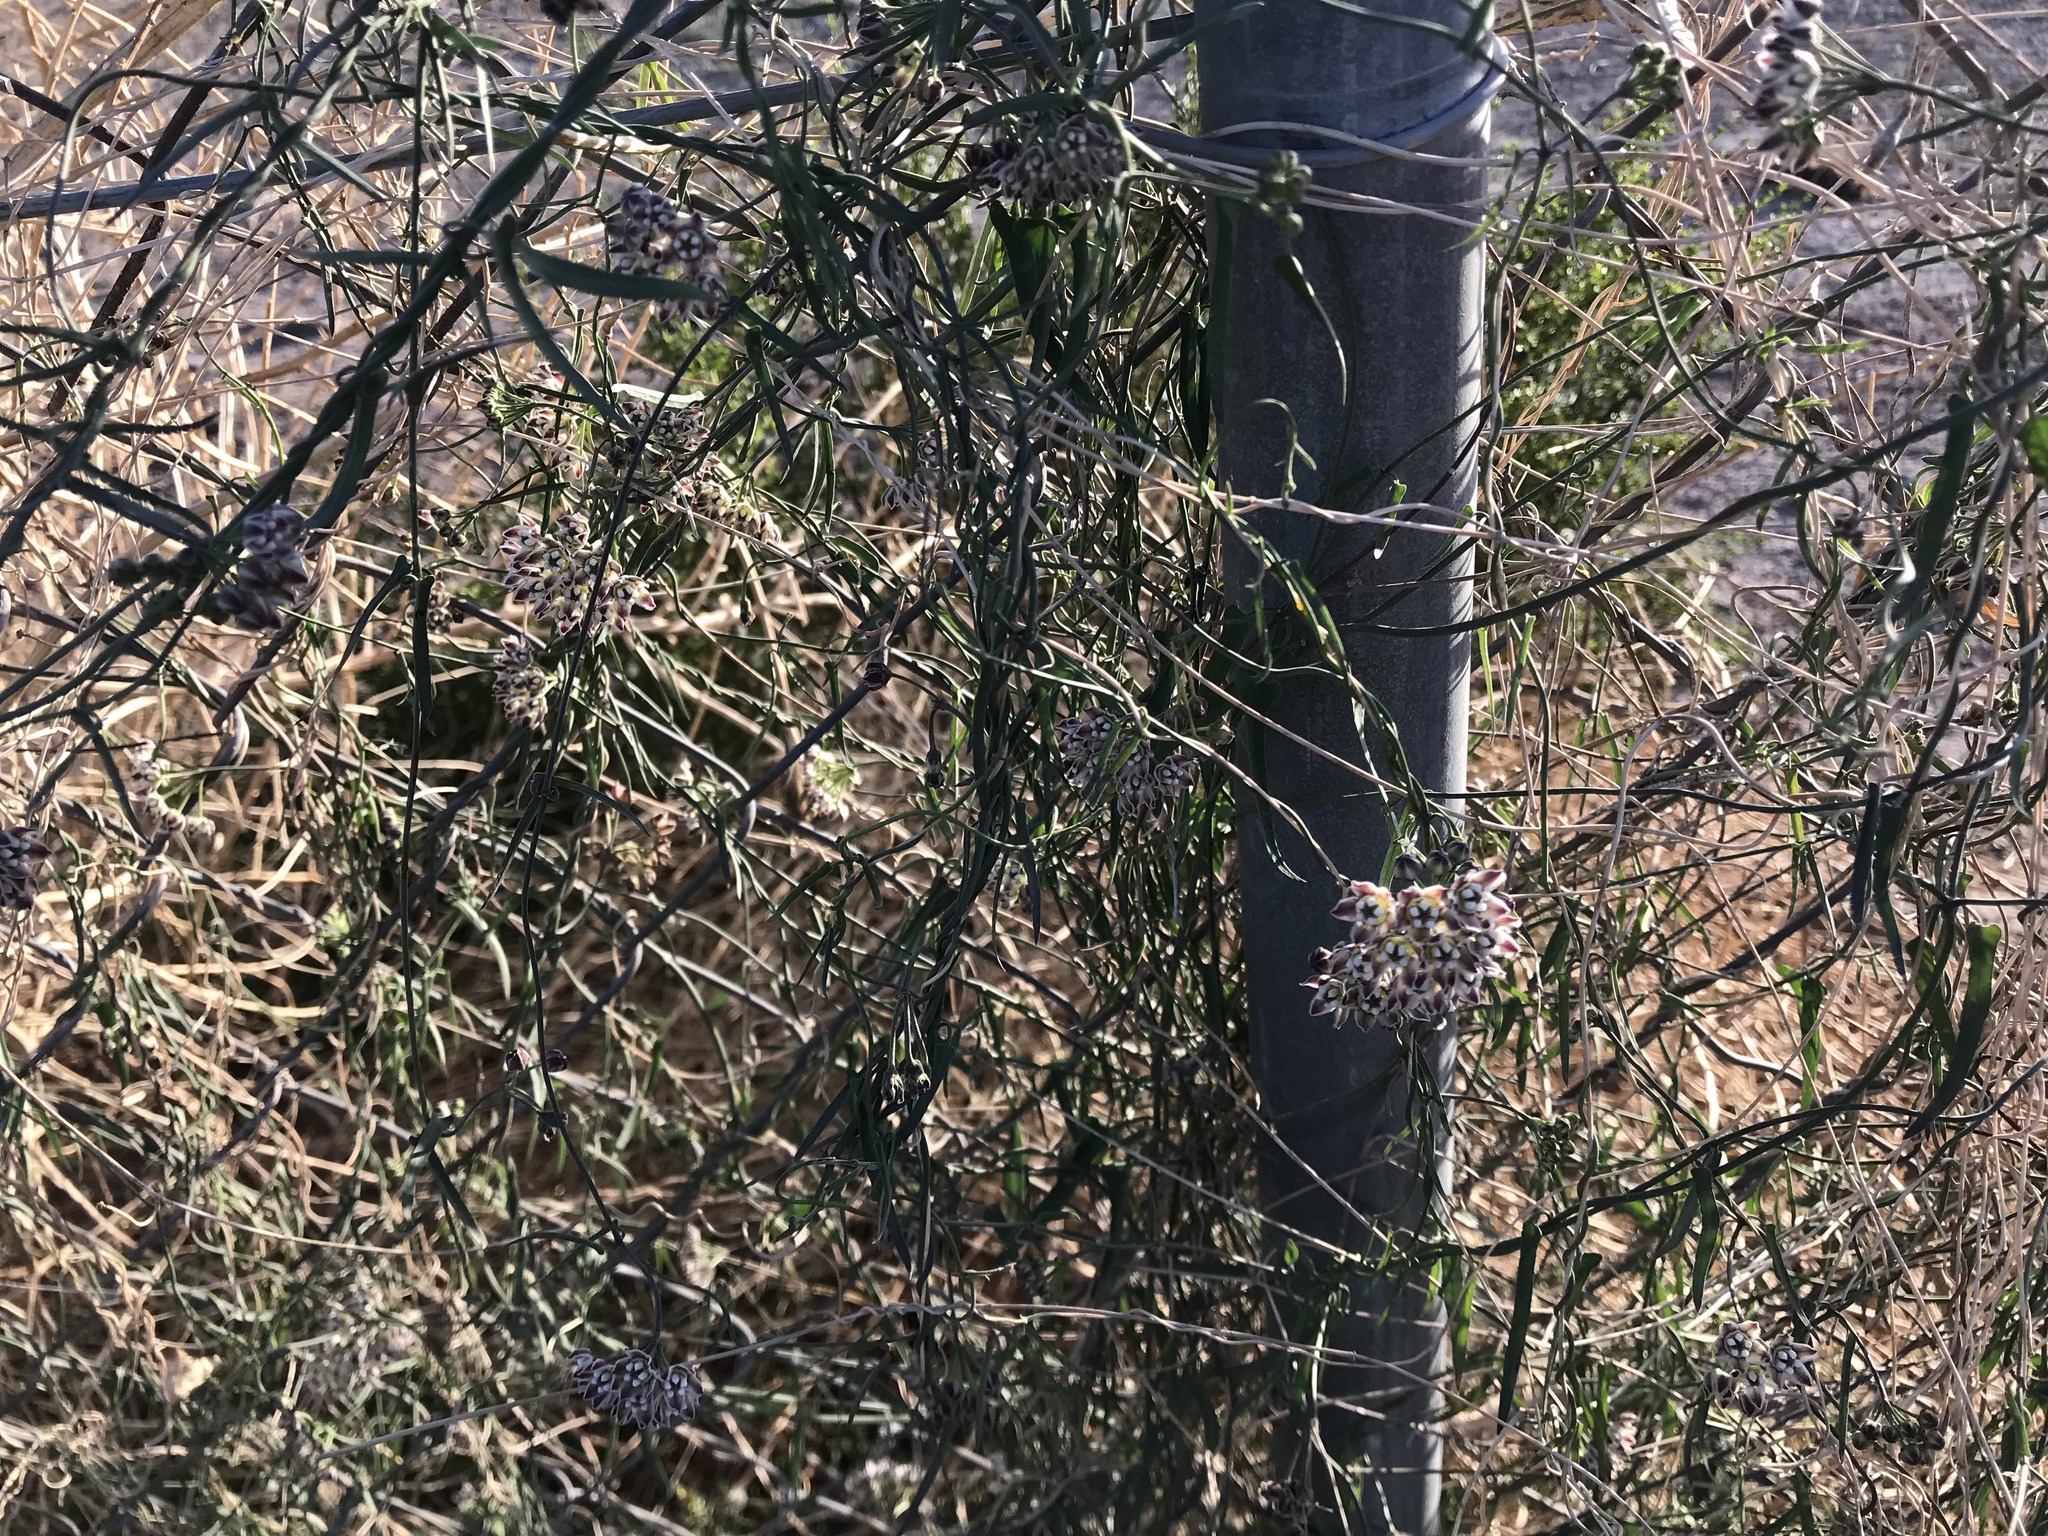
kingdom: Plantae
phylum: Tracheophyta
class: Magnoliopsida
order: Gentianales
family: Apocynaceae
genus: Funastrum
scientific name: Funastrum heterophyllum
